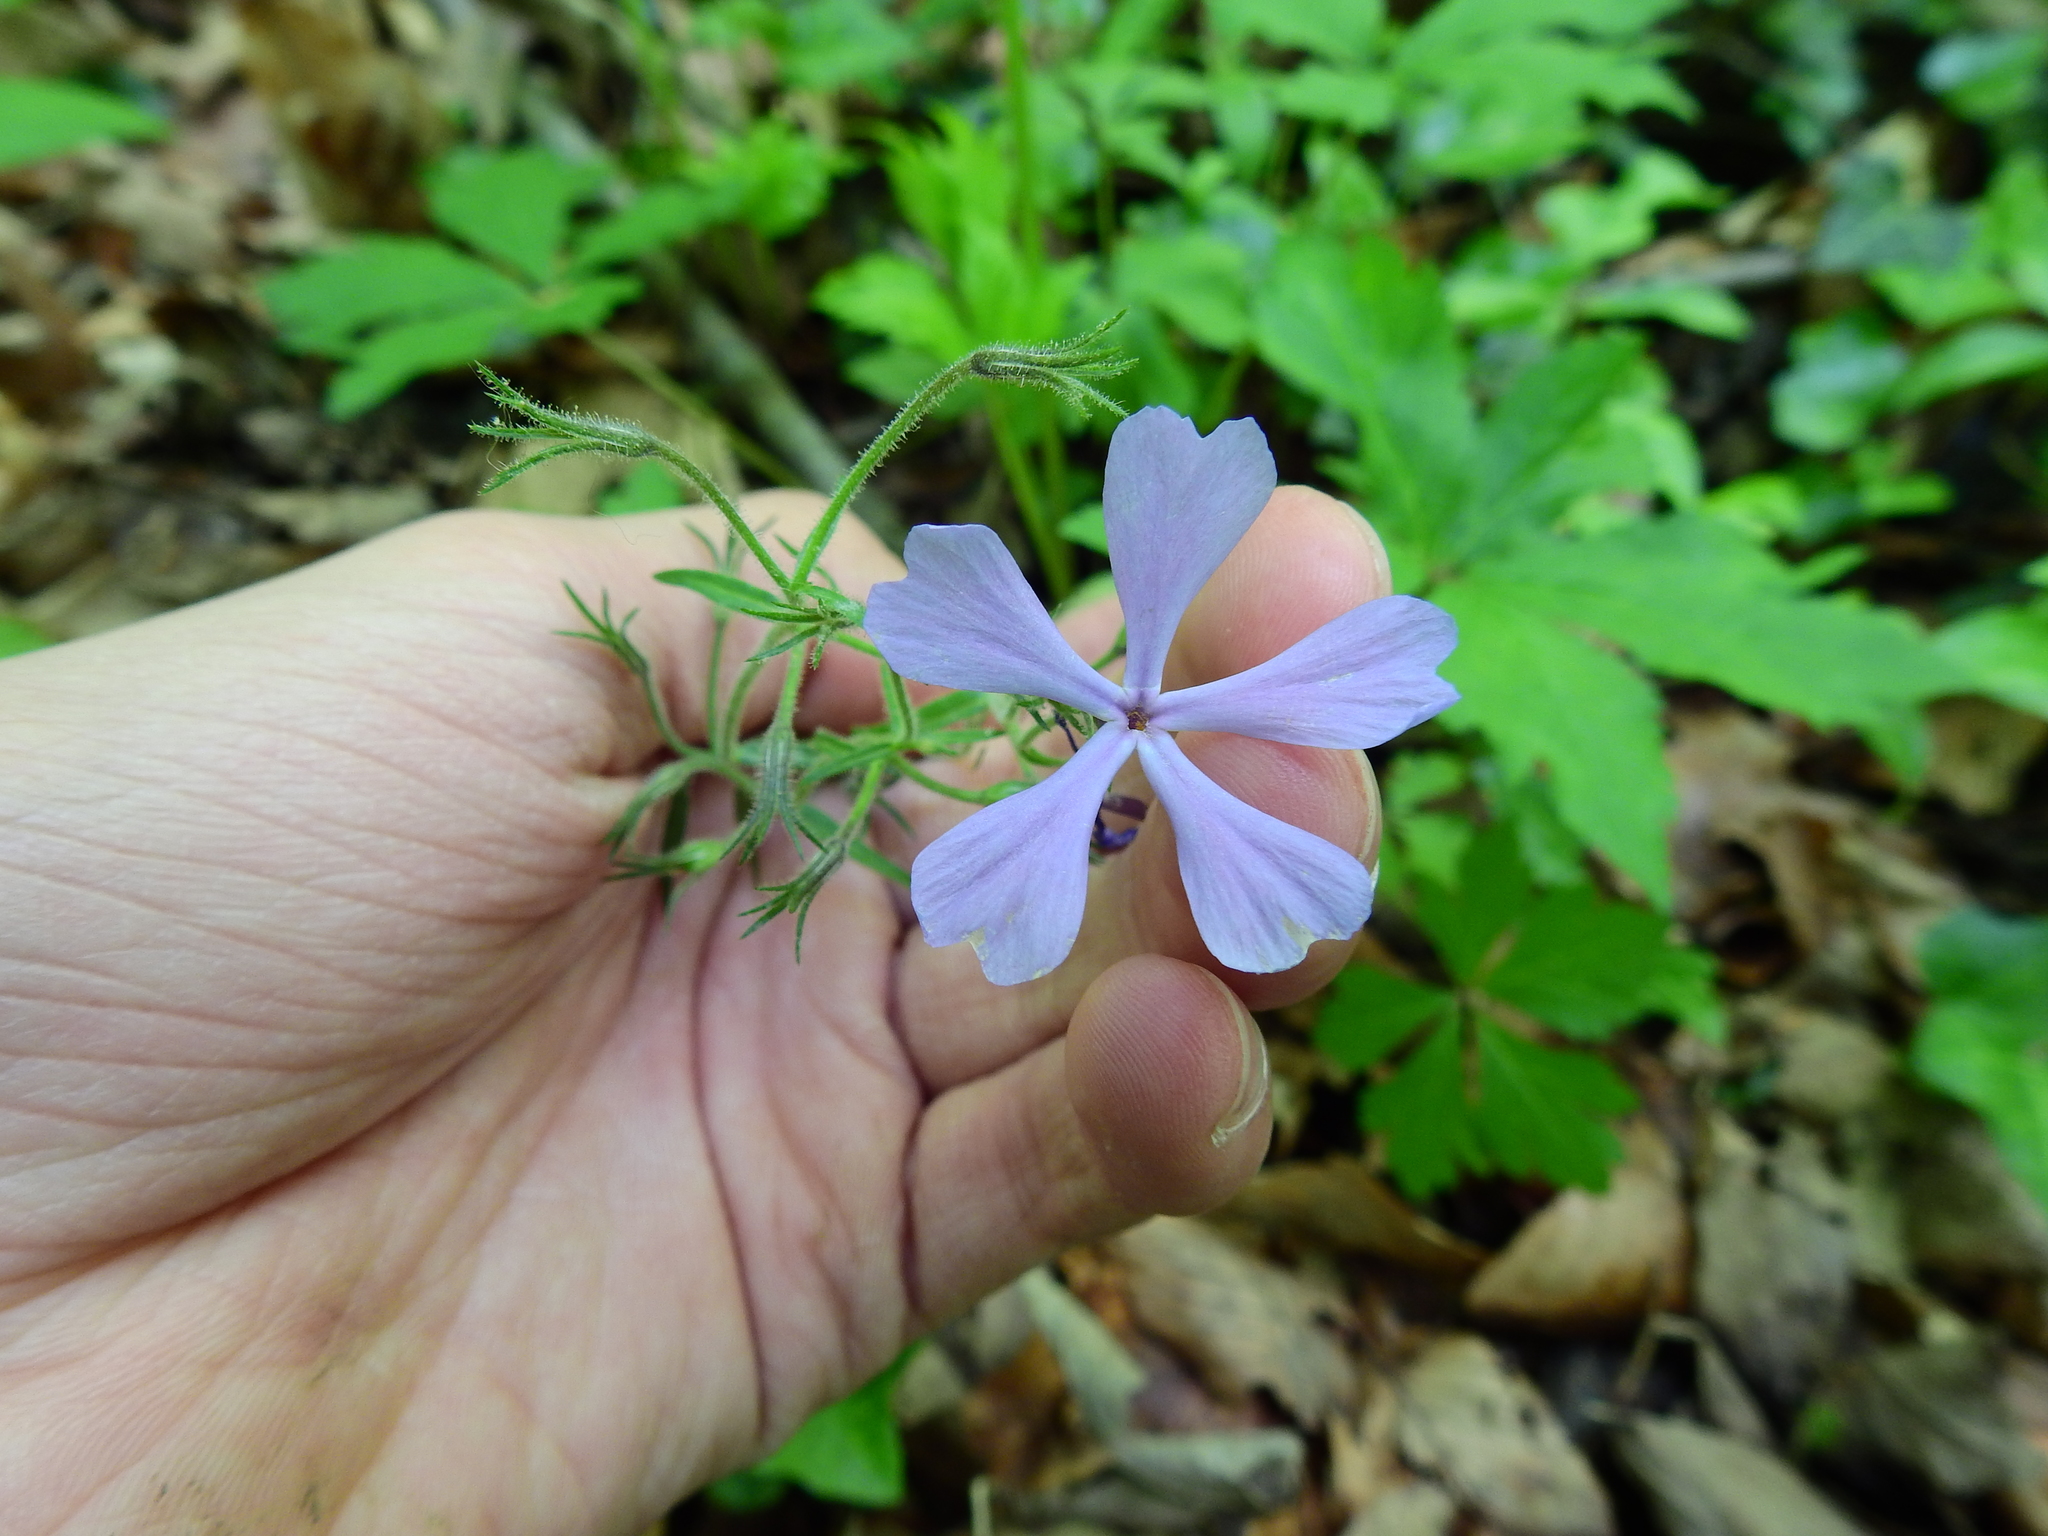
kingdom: Plantae
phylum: Tracheophyta
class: Magnoliopsida
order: Ericales
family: Polemoniaceae
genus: Phlox
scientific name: Phlox divaricata
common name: Blue phlox
